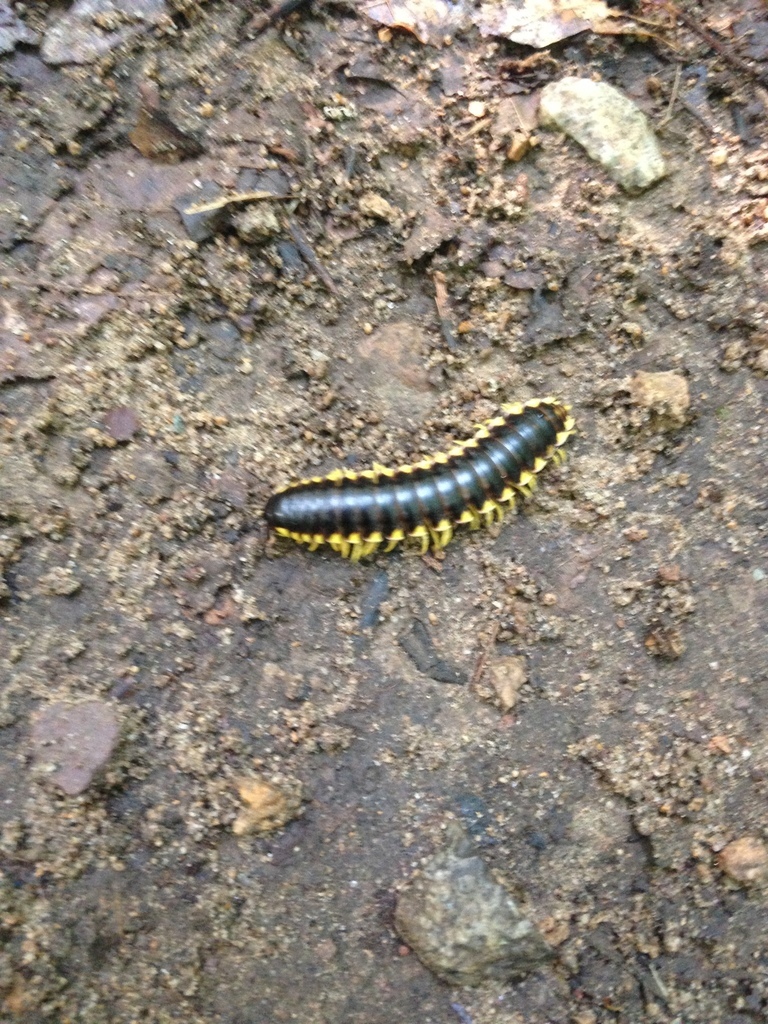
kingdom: Animalia
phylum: Arthropoda
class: Diplopoda
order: Polydesmida
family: Xystodesmidae
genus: Apheloria
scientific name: Apheloria tigana
